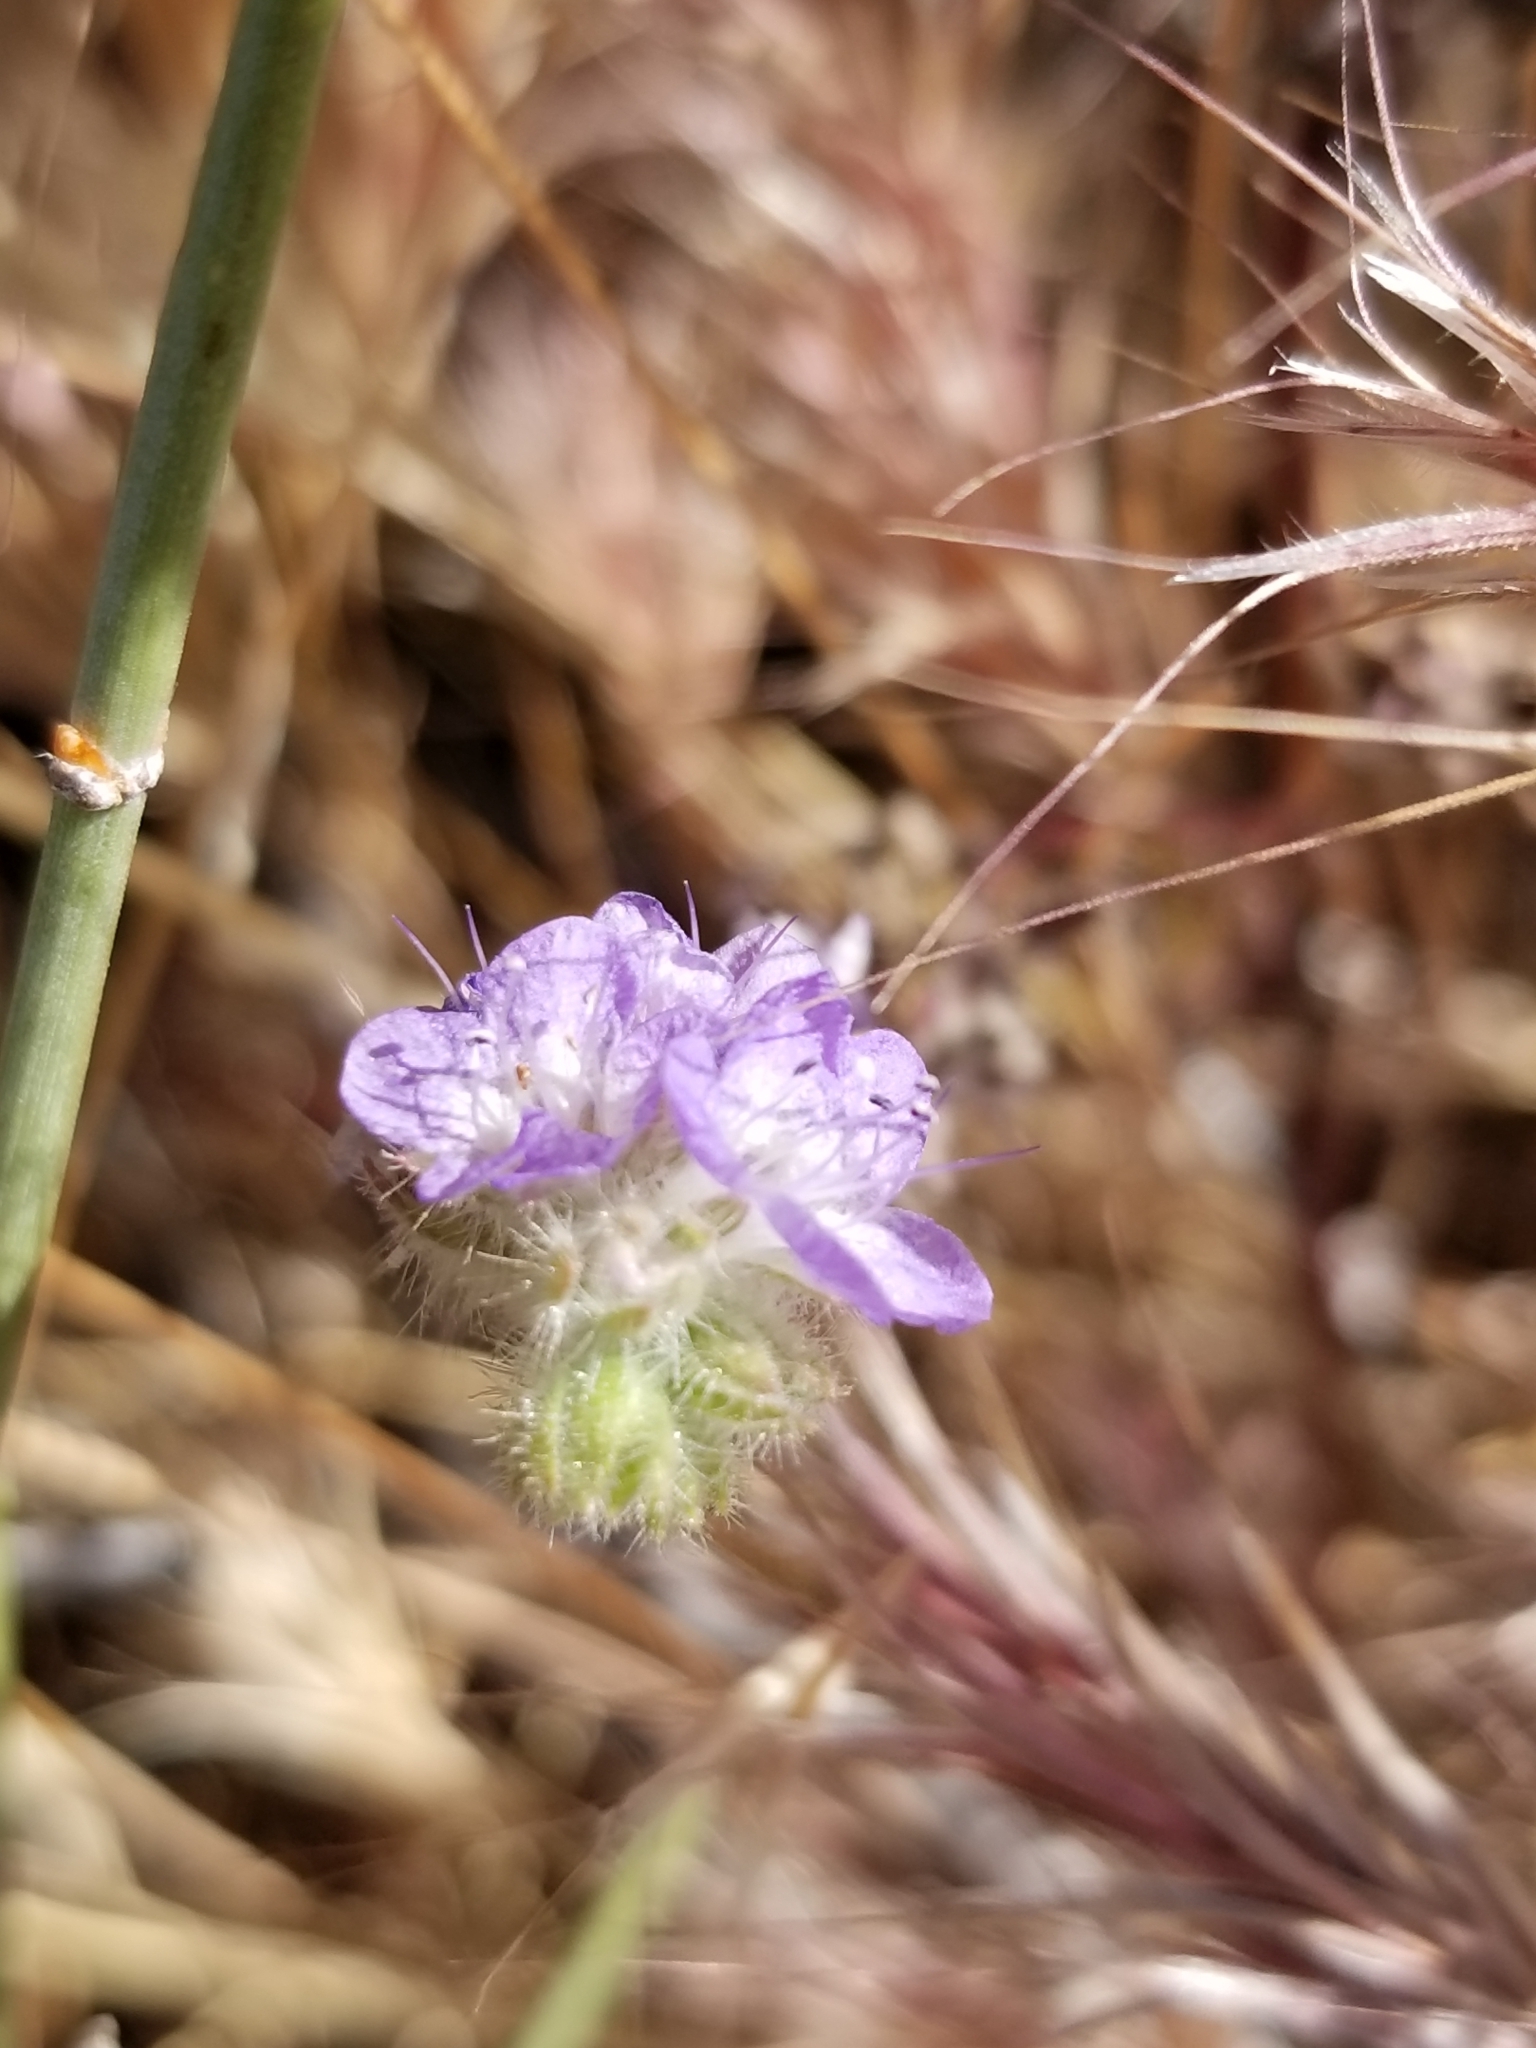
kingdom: Plantae
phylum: Tracheophyta
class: Magnoliopsida
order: Boraginales
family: Hydrophyllaceae
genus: Phacelia
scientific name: Phacelia distans
